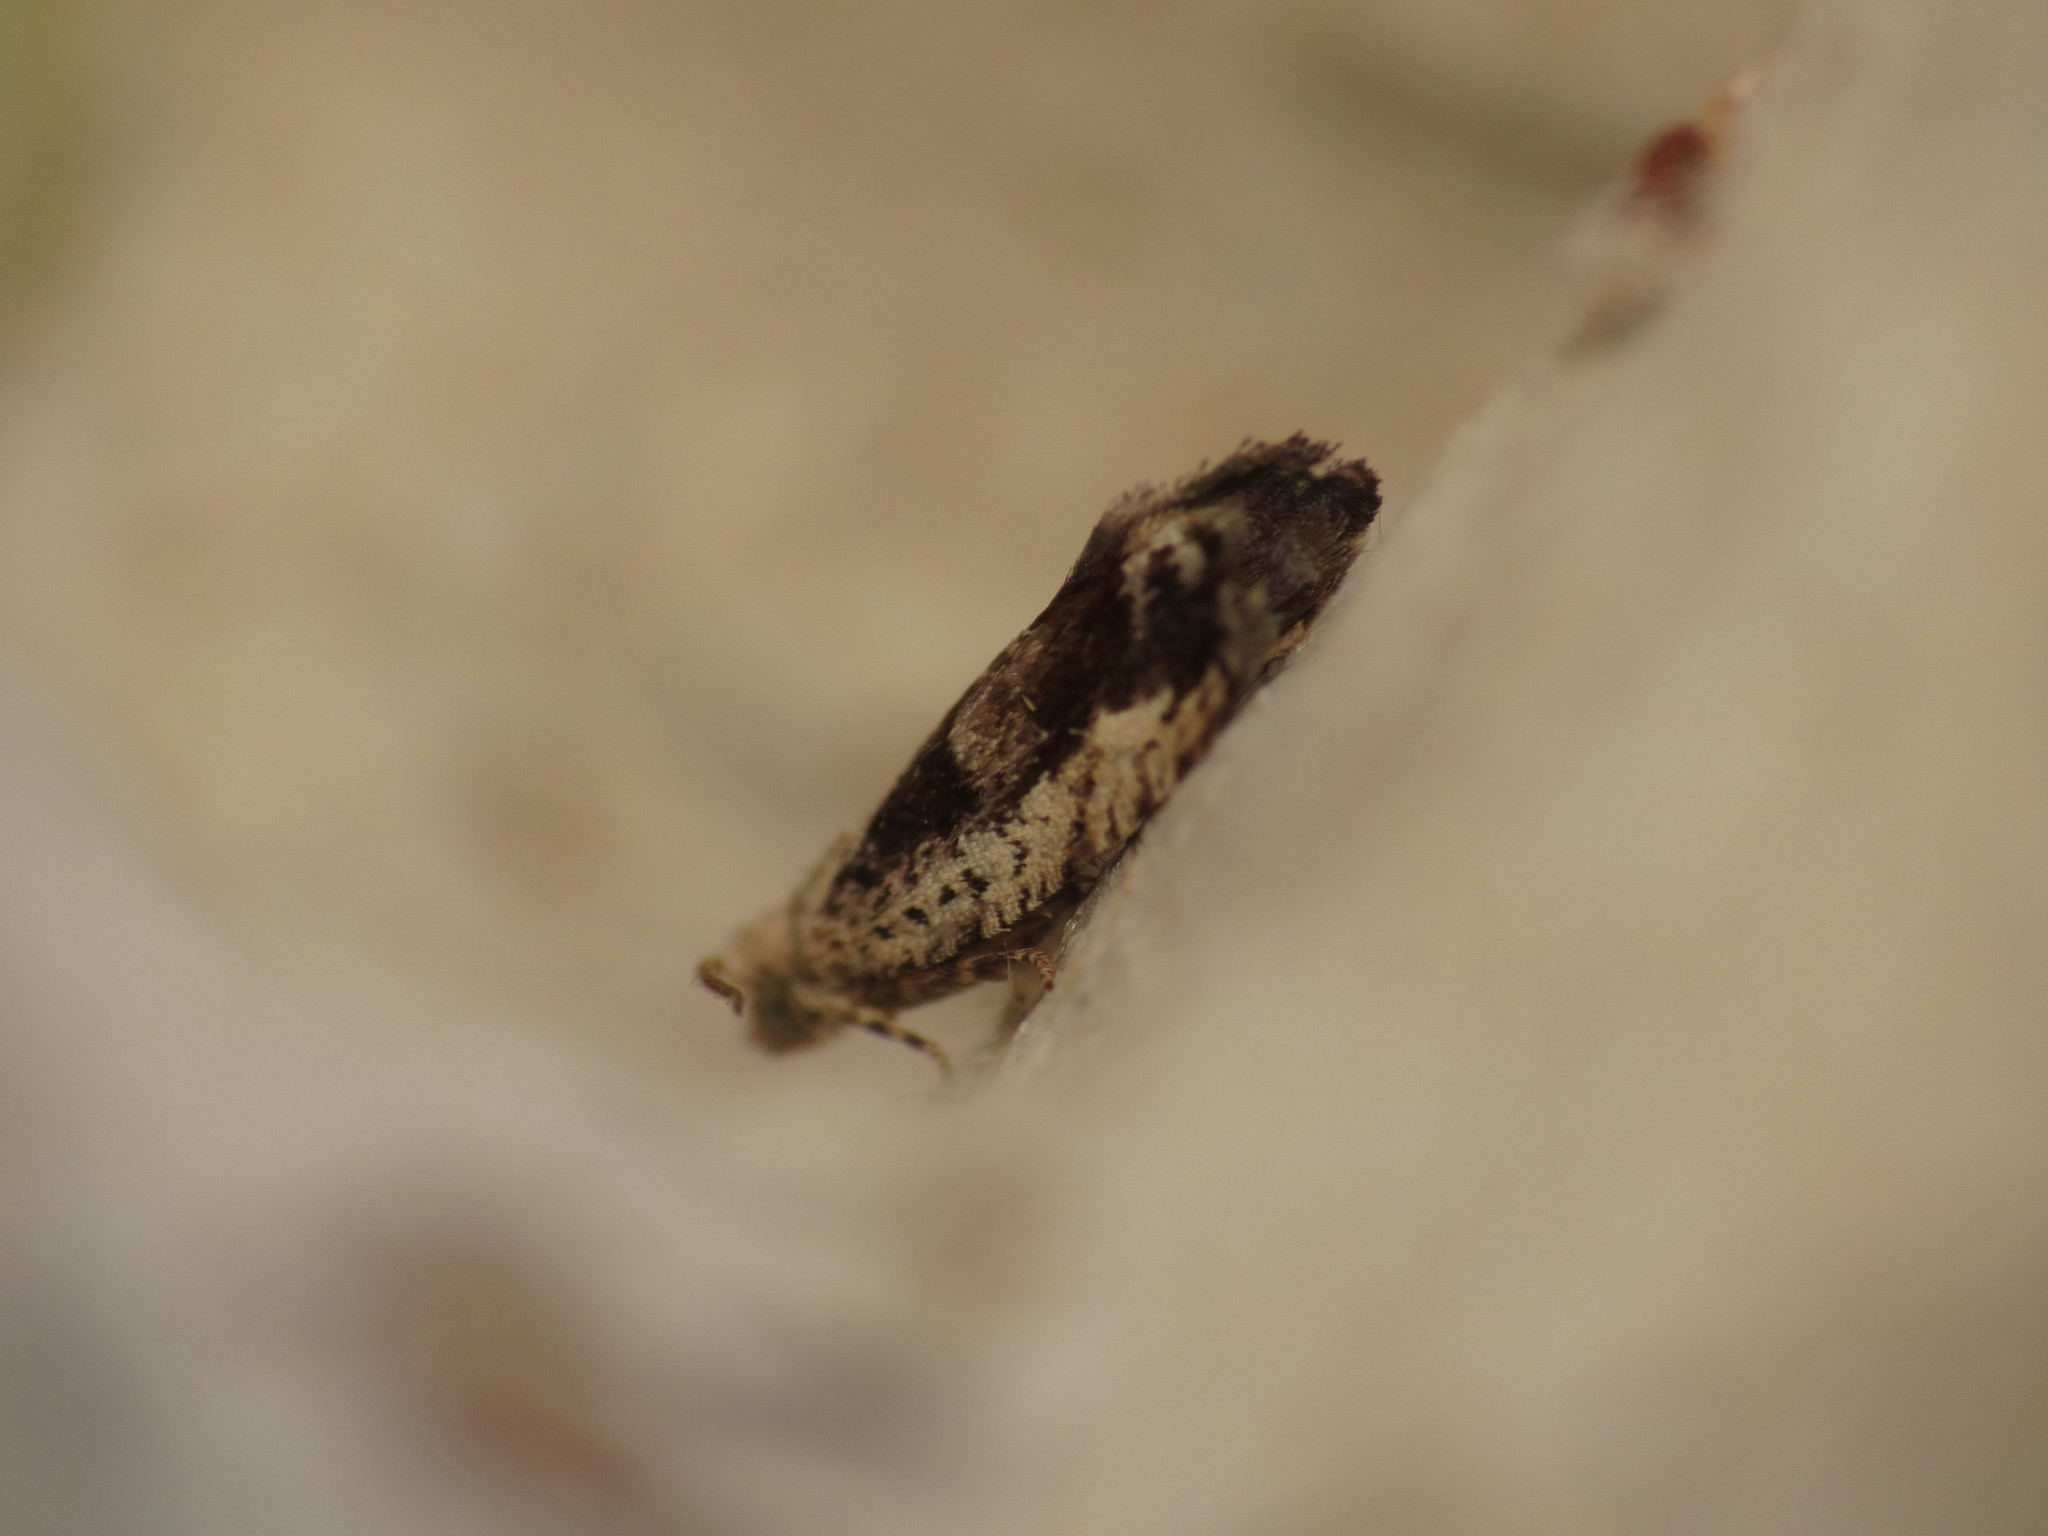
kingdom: Animalia
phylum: Arthropoda
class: Insecta
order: Lepidoptera
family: Tortricidae
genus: Epinotia
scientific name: Epinotia ramella
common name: Small birch bell
